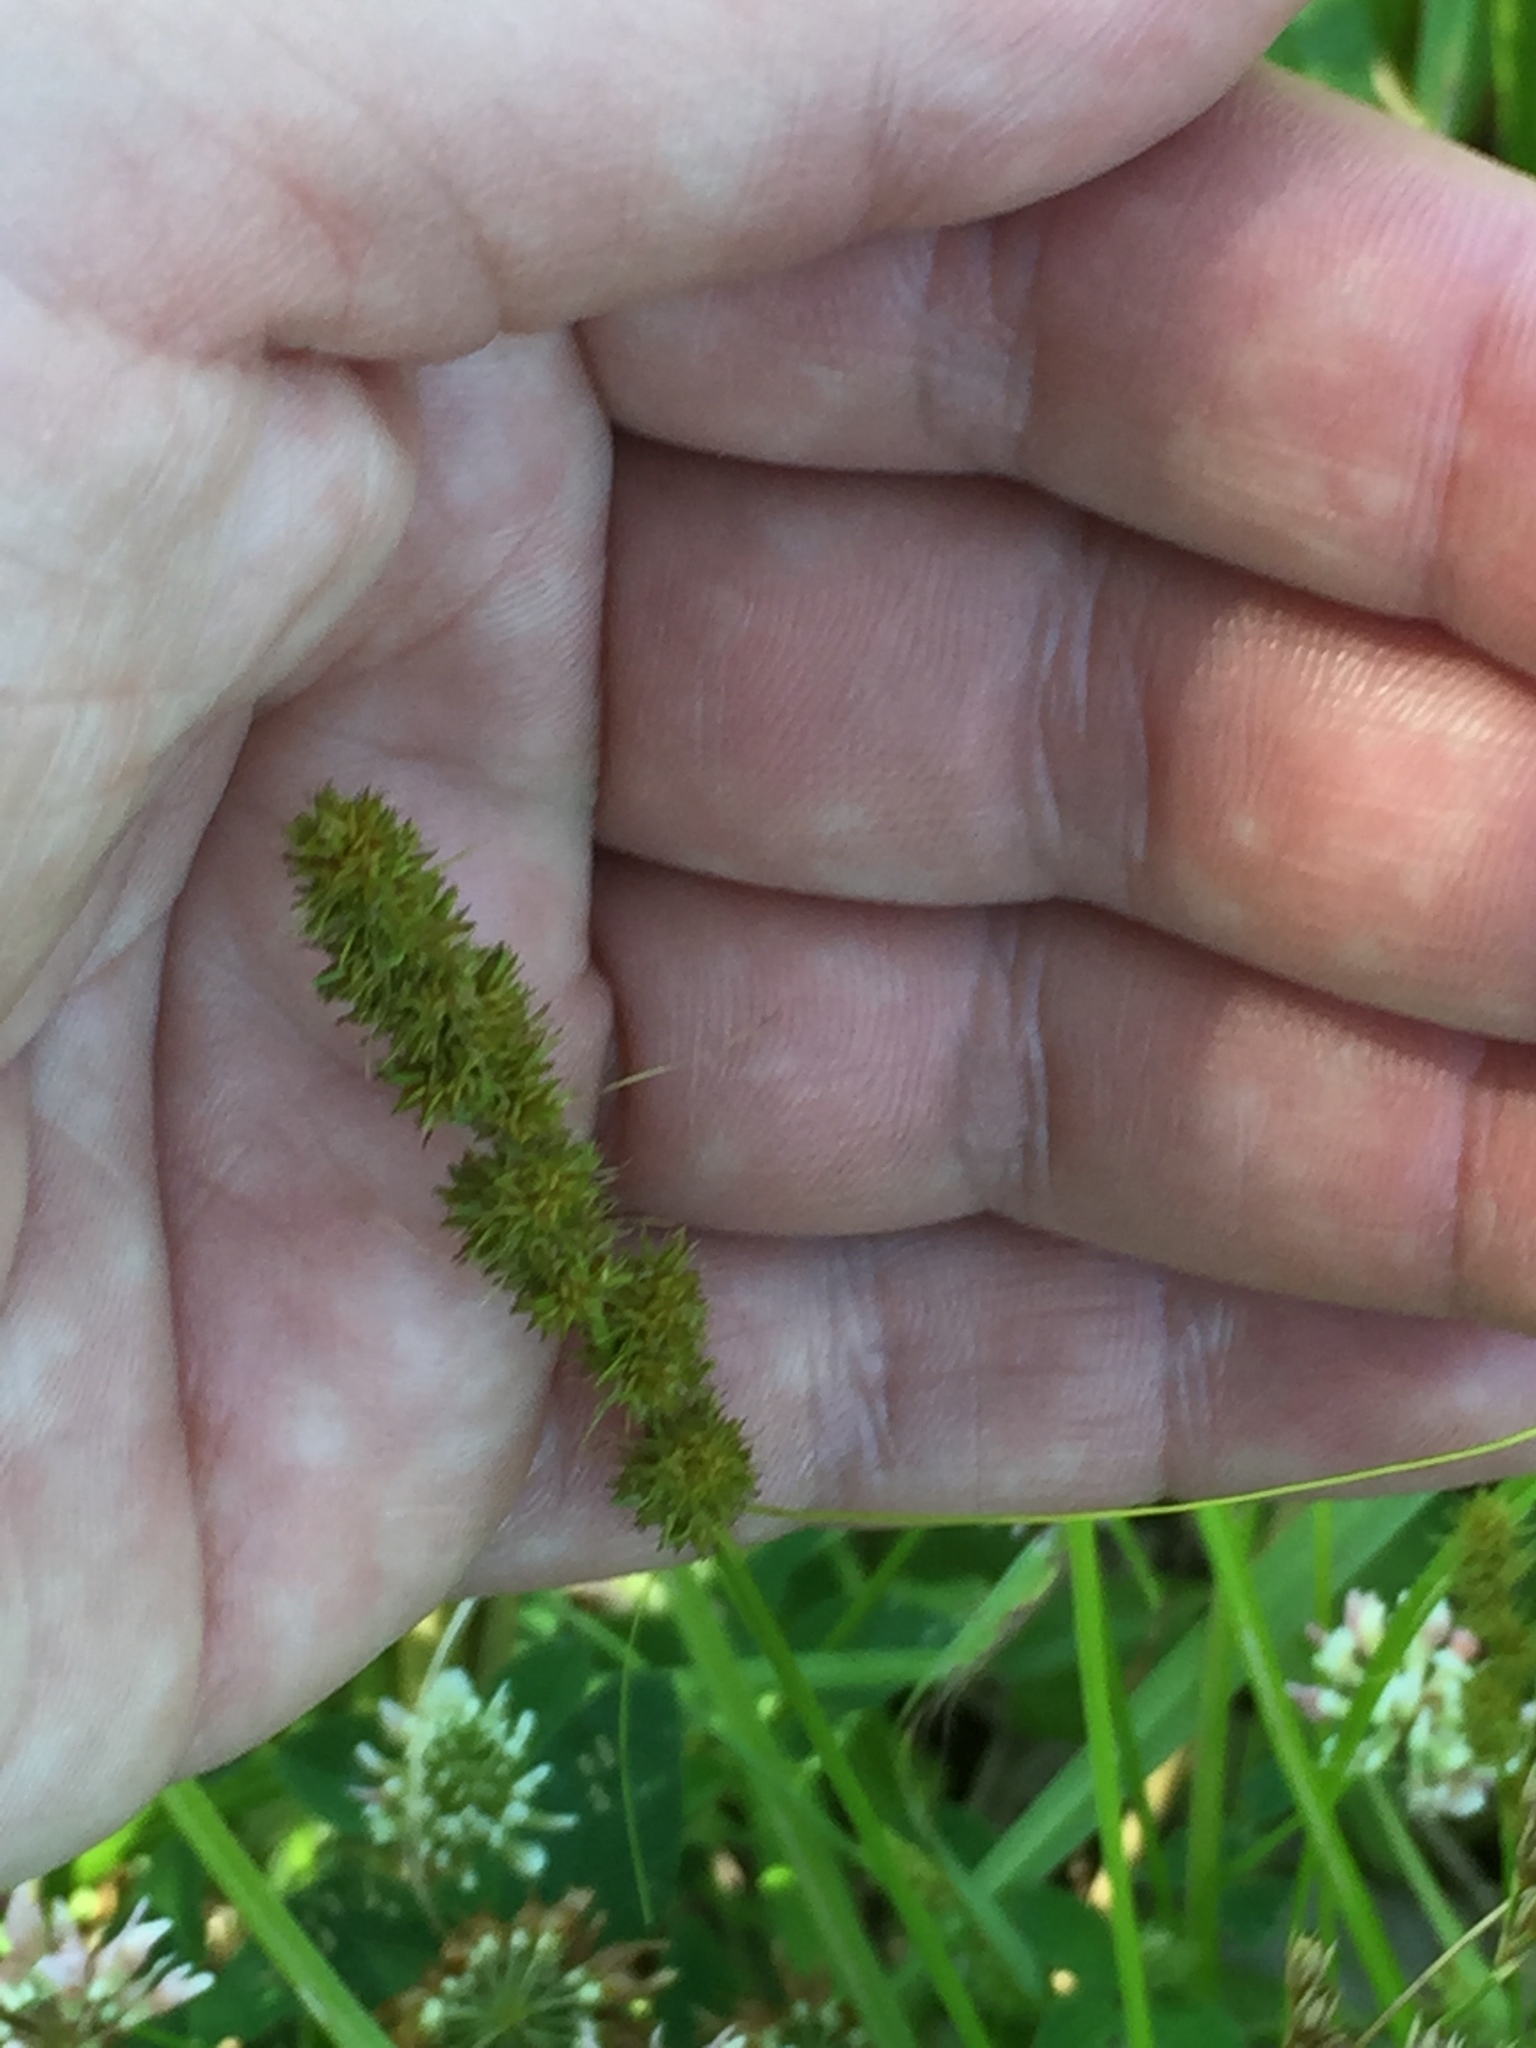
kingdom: Plantae
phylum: Tracheophyta
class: Liliopsida
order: Poales
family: Cyperaceae
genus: Carex
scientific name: Carex vulpinoidea
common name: American fox-sedge
